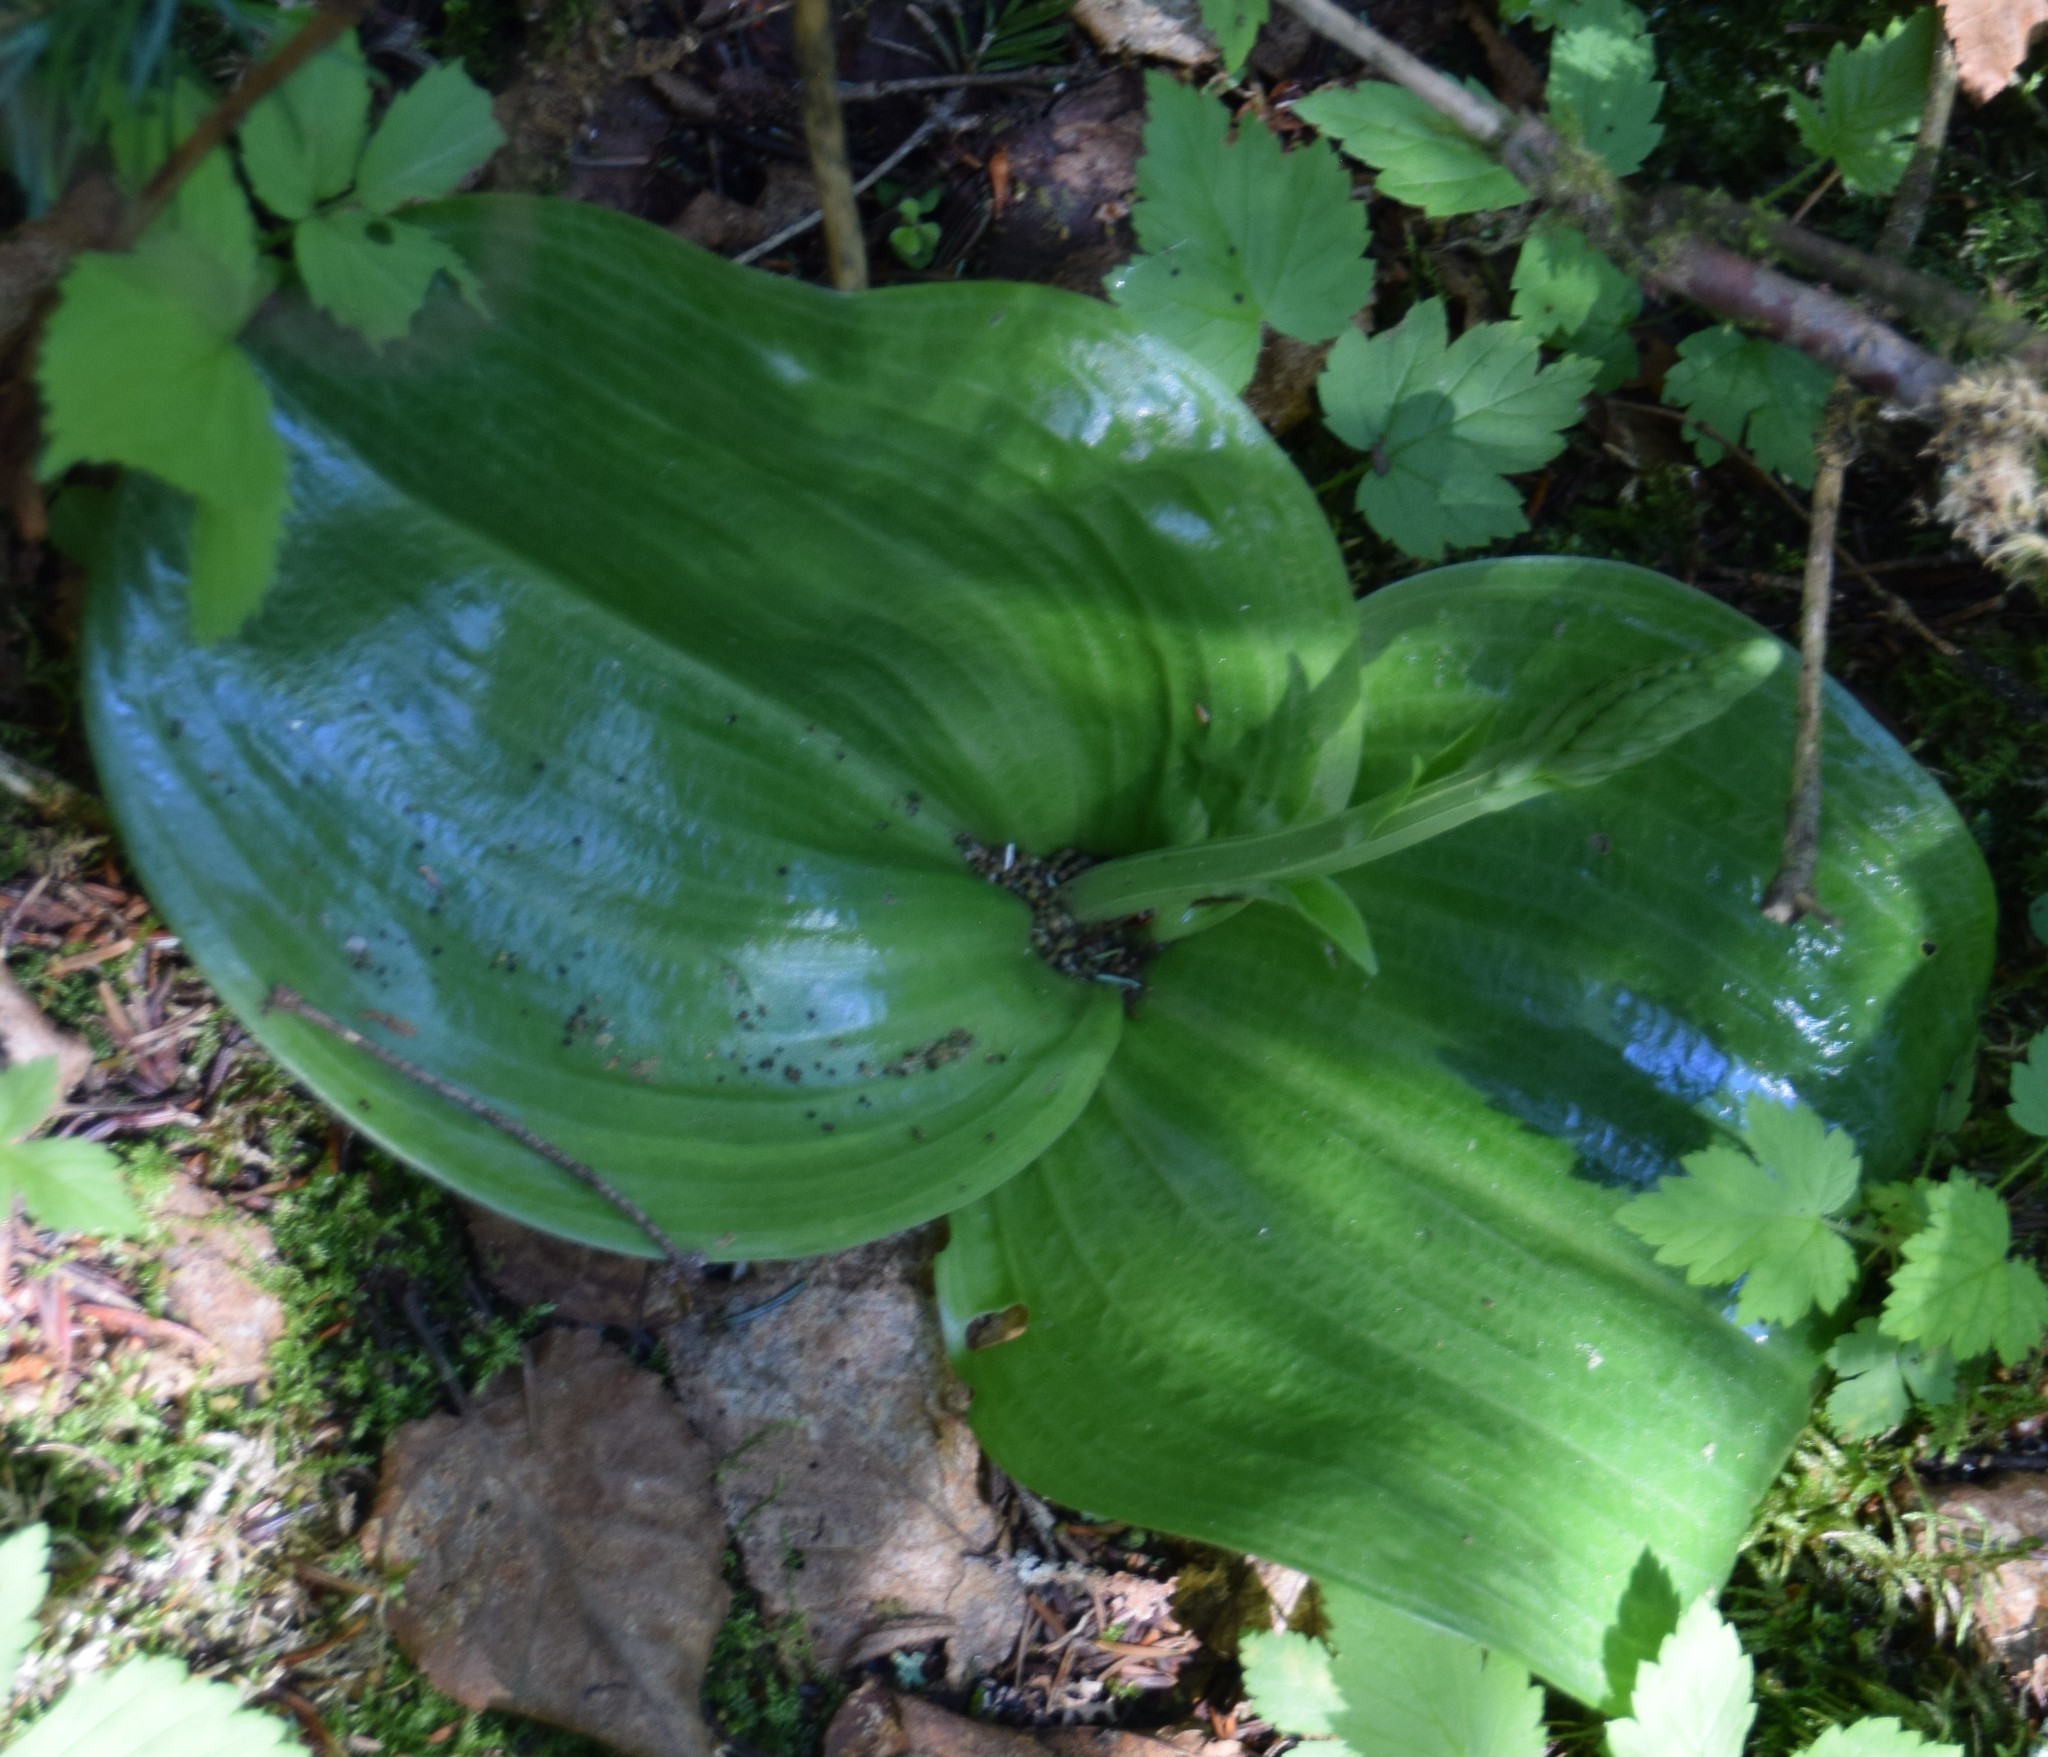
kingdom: Plantae
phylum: Tracheophyta
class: Liliopsida
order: Asparagales
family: Orchidaceae
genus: Platanthera
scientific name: Platanthera orbiculata
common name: Large round-leaved orchid
